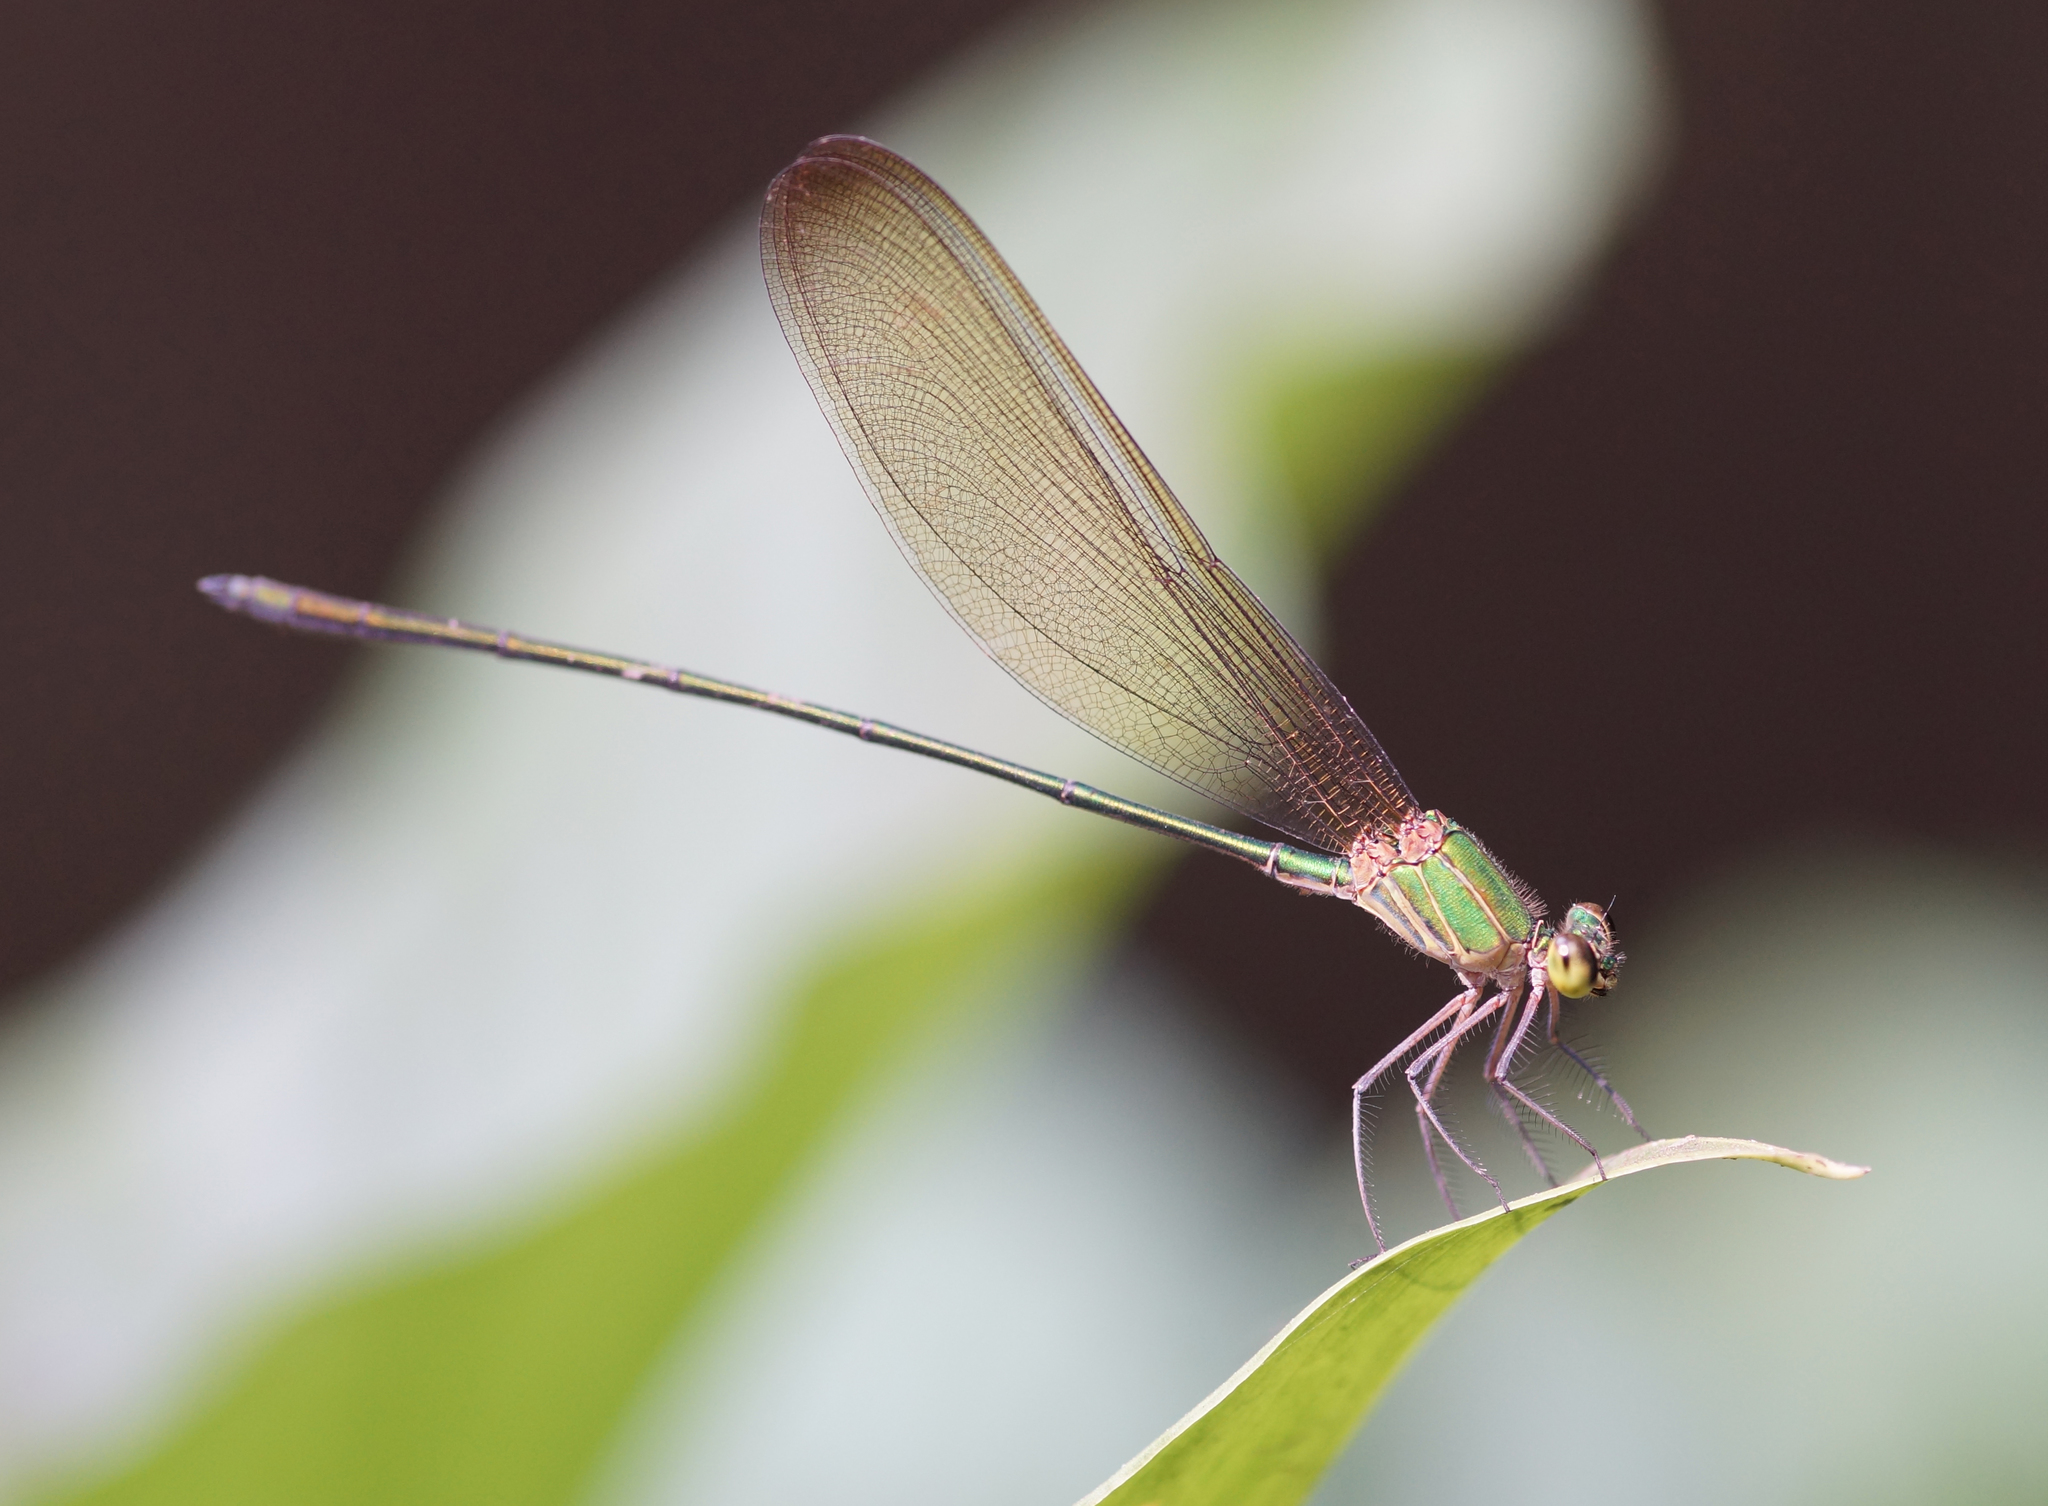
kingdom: Animalia
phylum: Arthropoda
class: Insecta
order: Odonata
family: Calopterygidae
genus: Vestalis
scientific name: Vestalis gracilis
